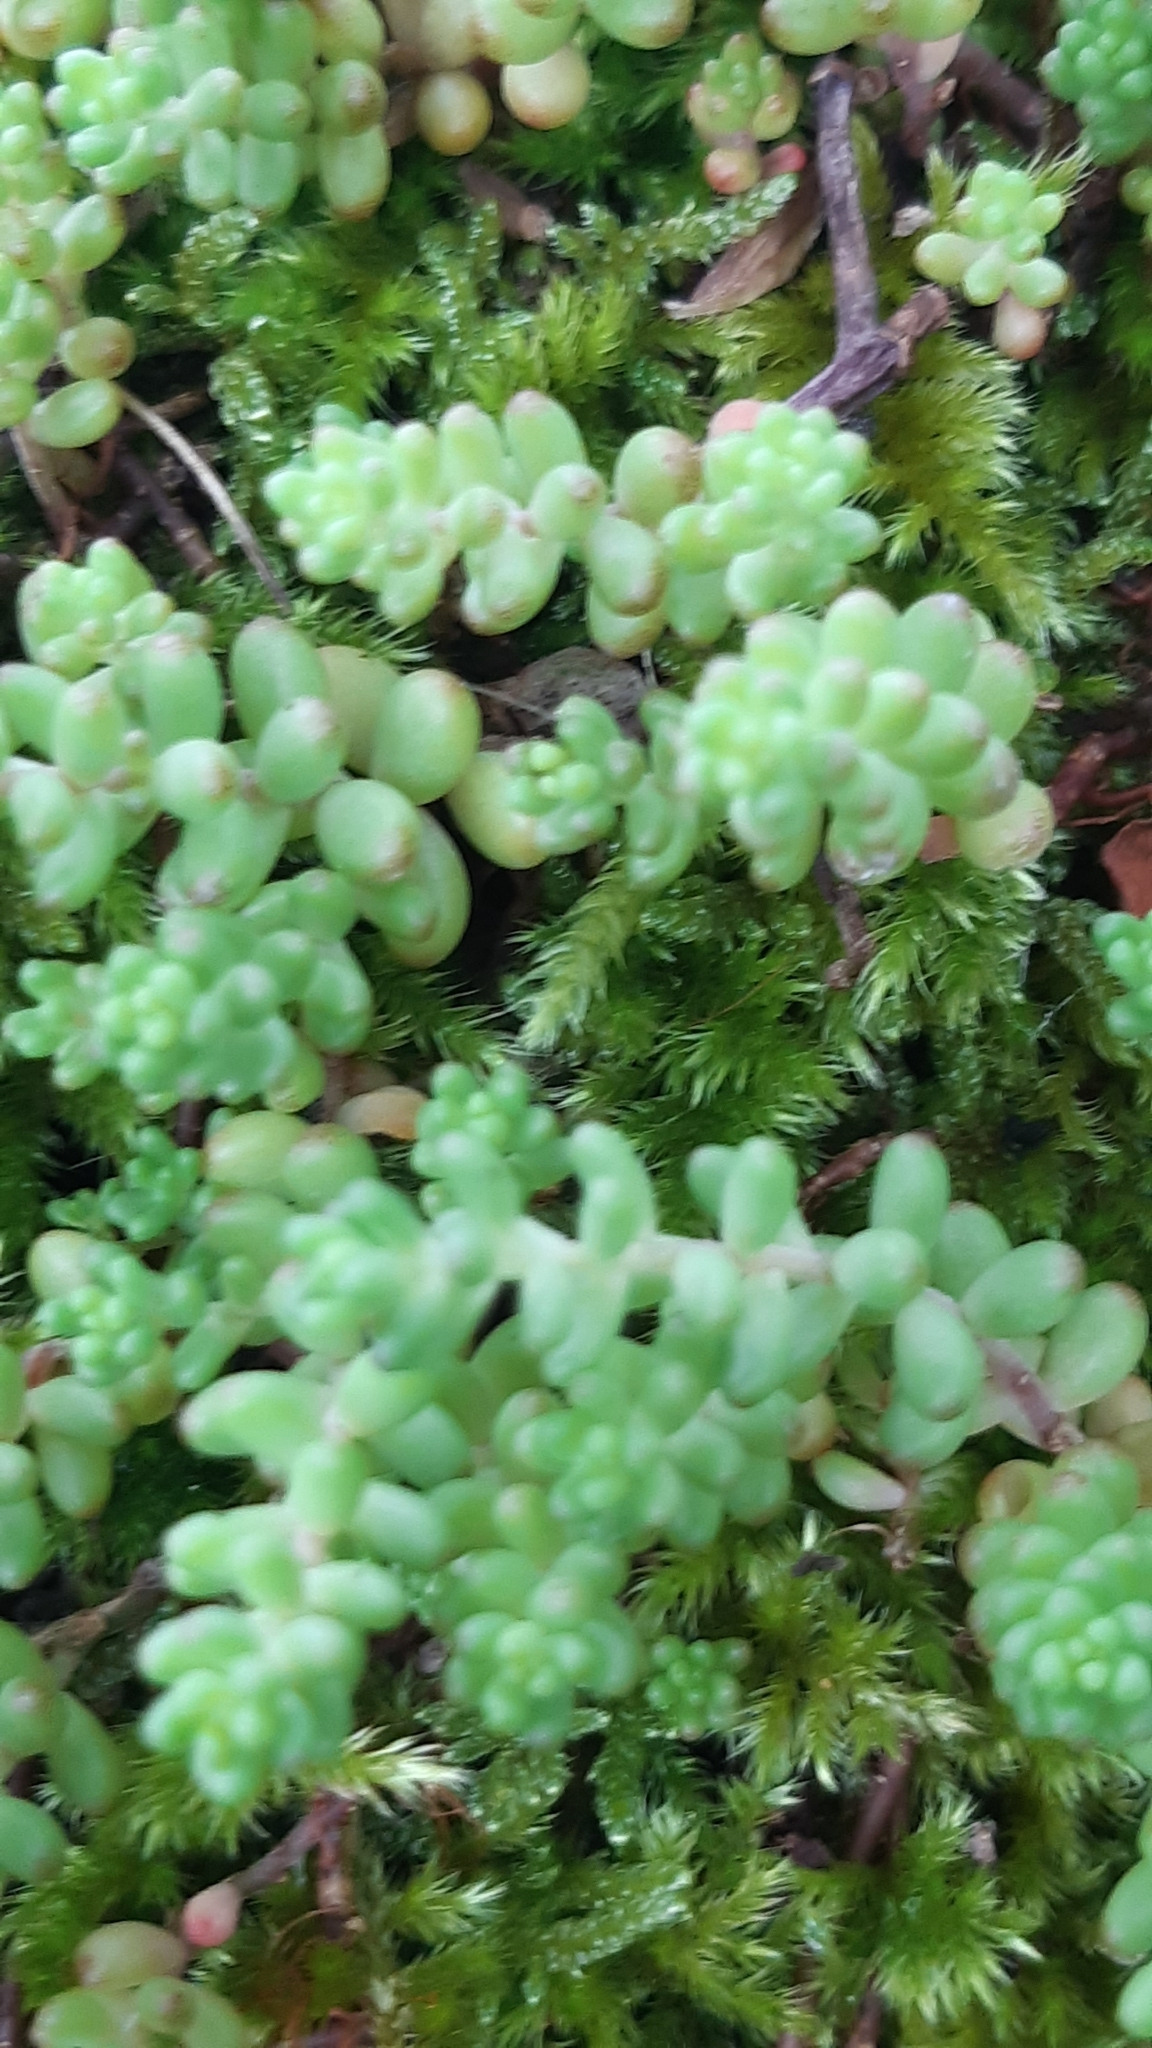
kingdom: Plantae
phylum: Tracheophyta
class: Magnoliopsida
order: Saxifragales
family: Crassulaceae
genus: Sedum
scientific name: Sedum album
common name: White stonecrop
